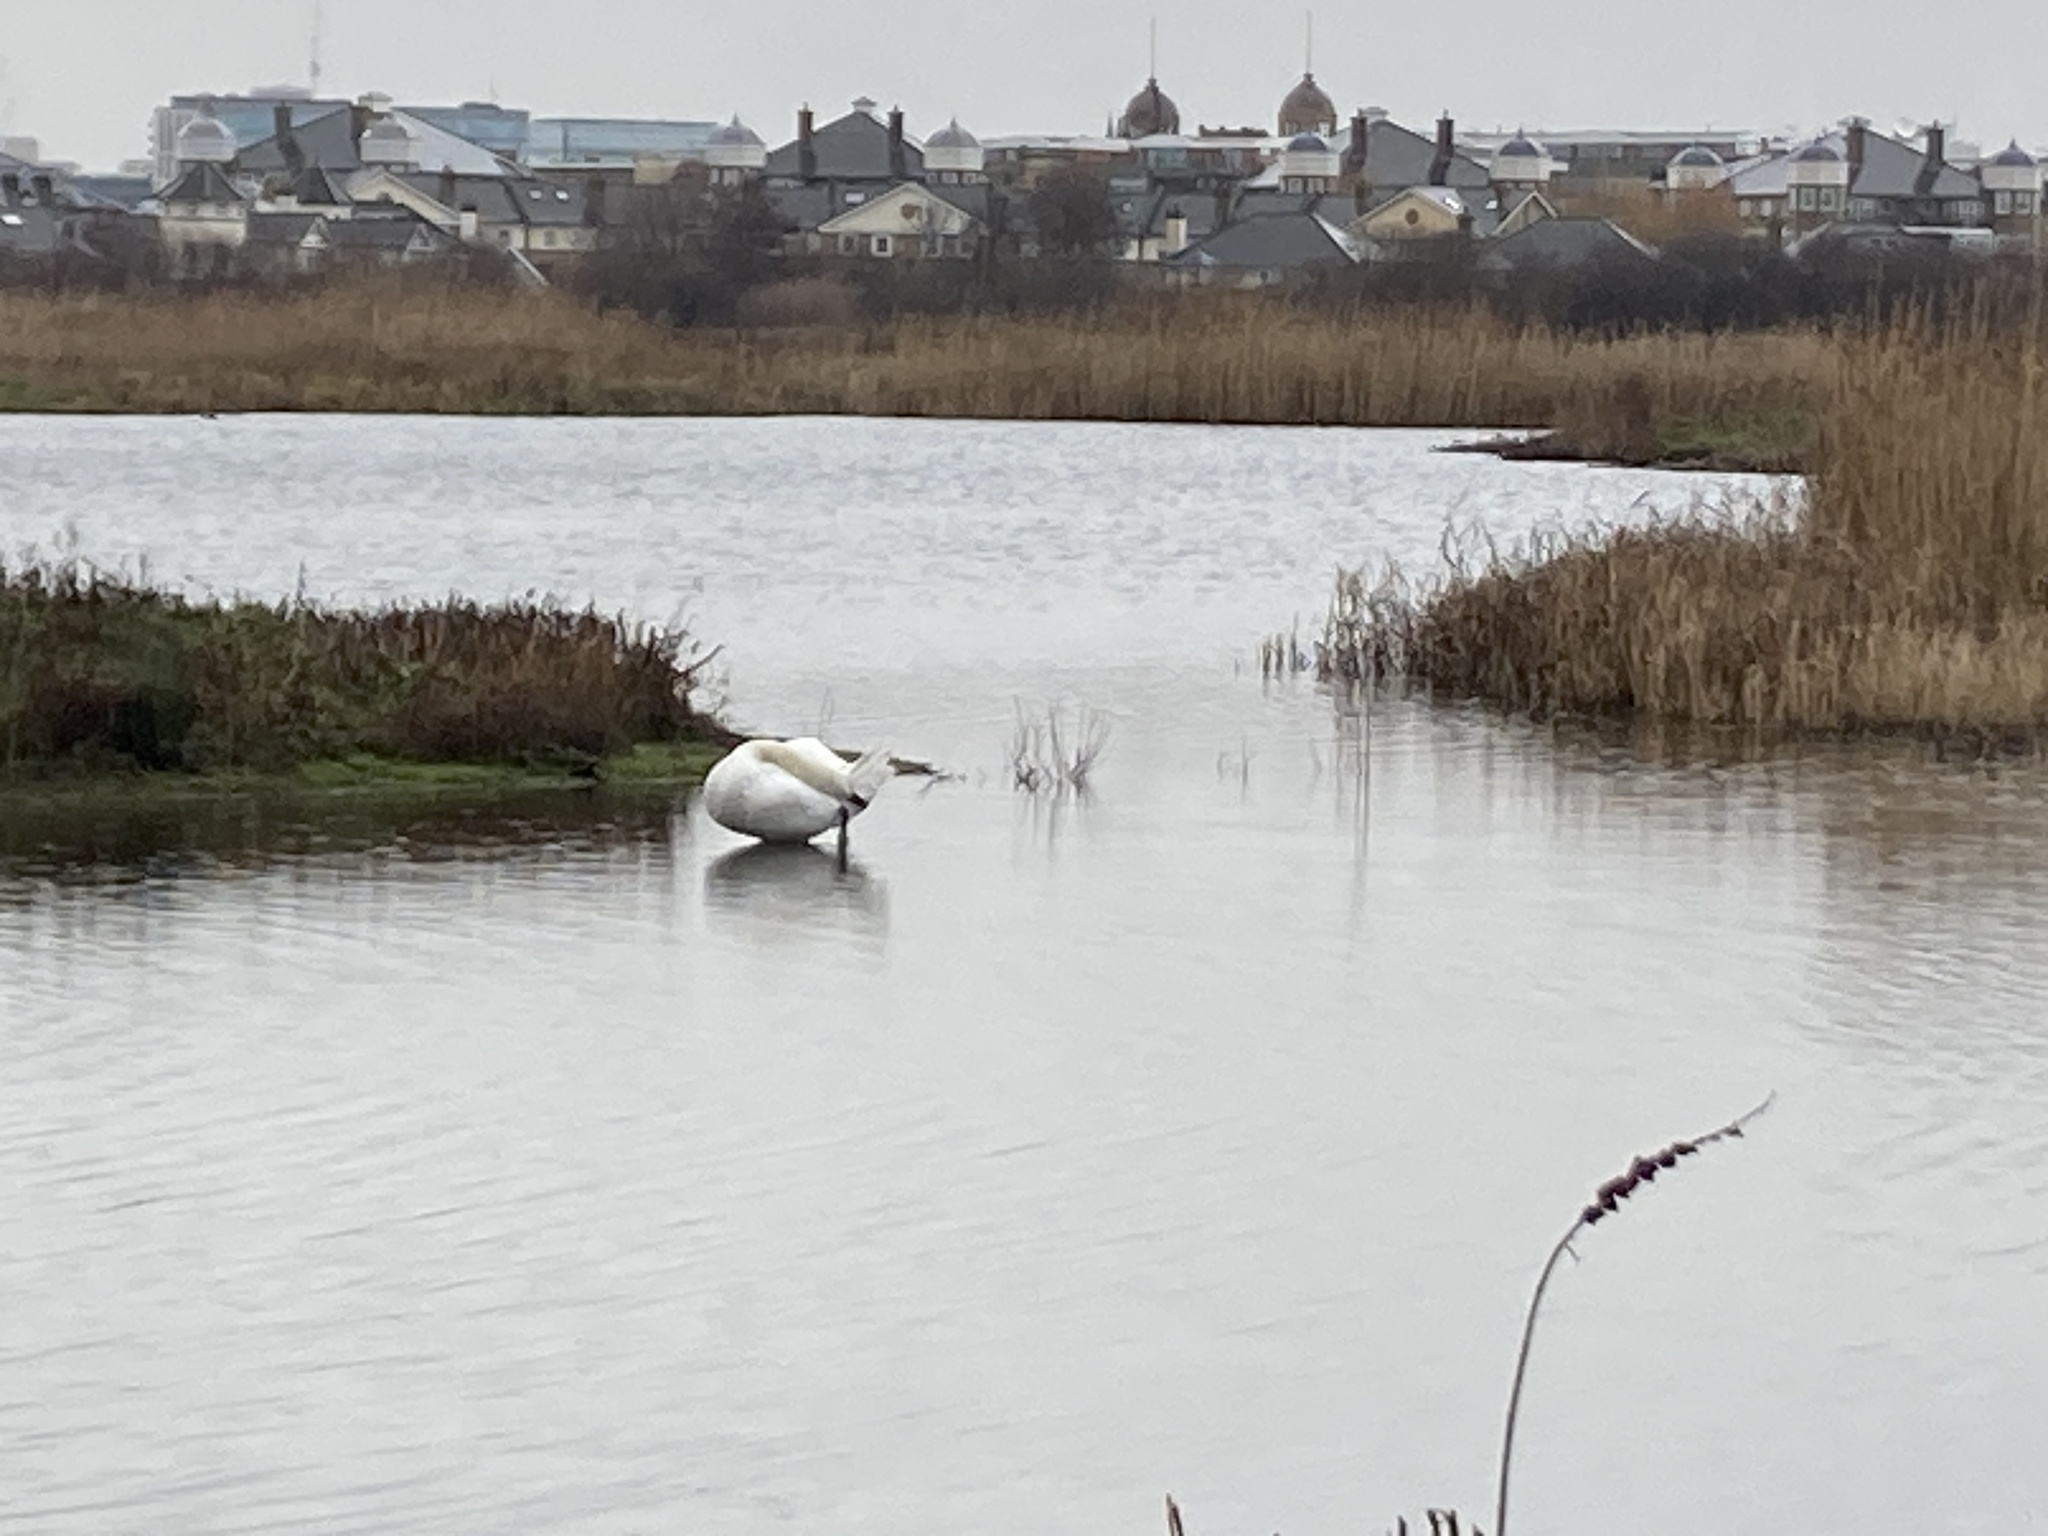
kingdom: Animalia
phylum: Chordata
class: Aves
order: Anseriformes
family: Anatidae
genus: Cygnus
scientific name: Cygnus olor
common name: Mute swan
